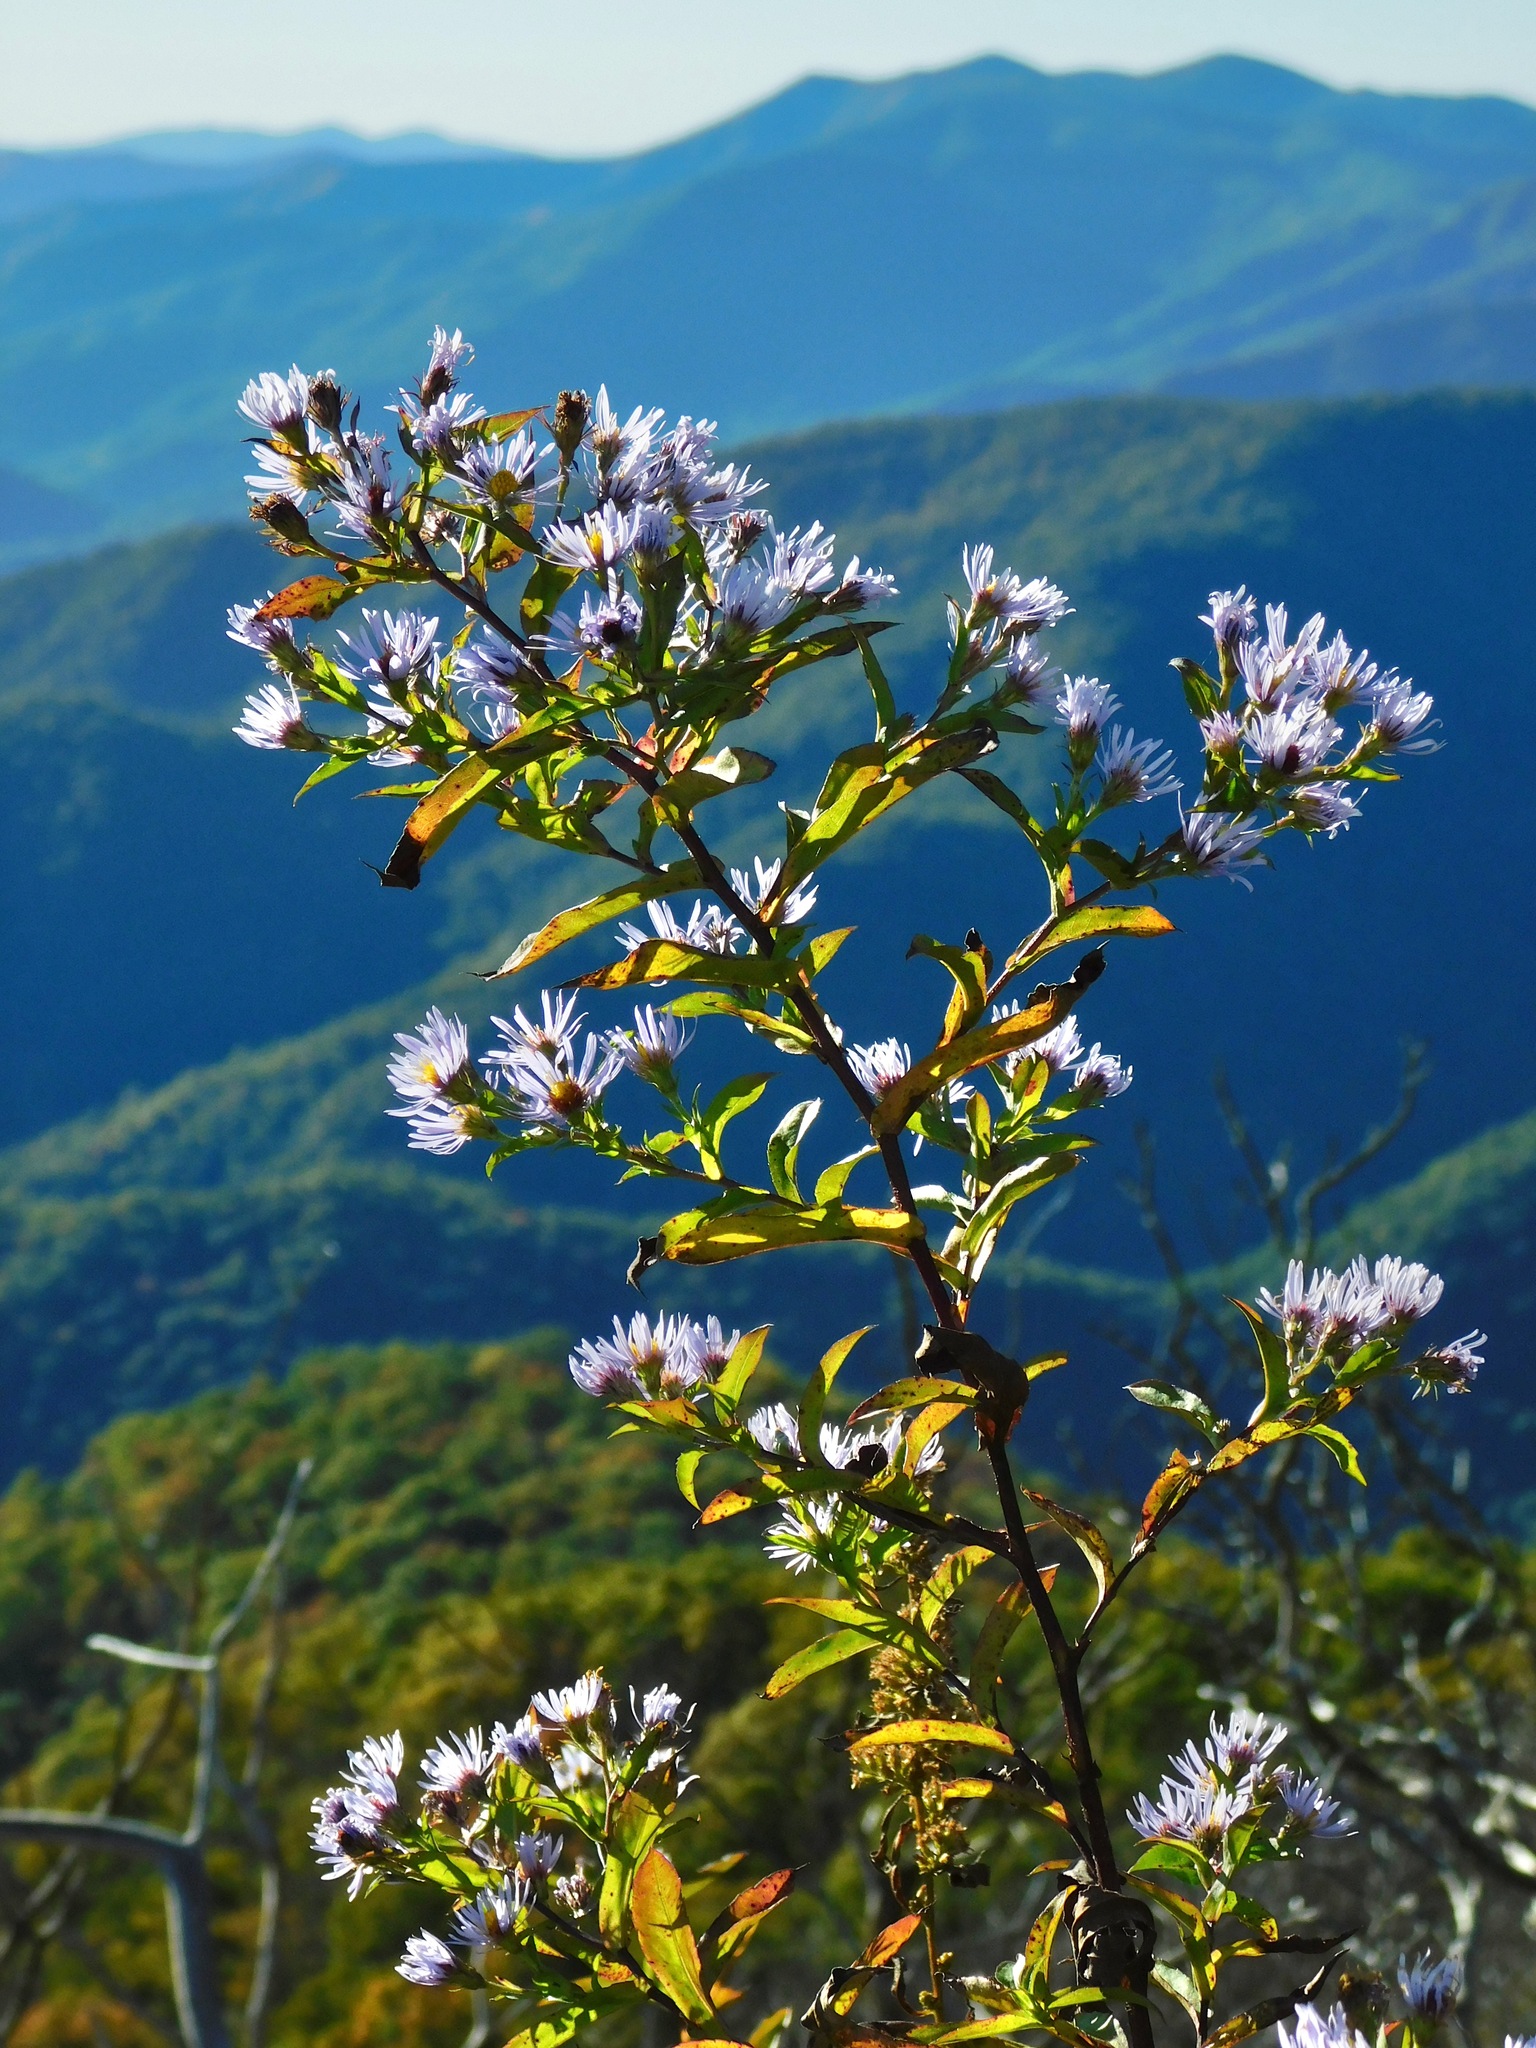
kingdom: Plantae
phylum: Tracheophyta
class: Magnoliopsida
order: Asterales
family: Asteraceae
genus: Symphyotrichum
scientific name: Symphyotrichum puniceum
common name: Bog aster
